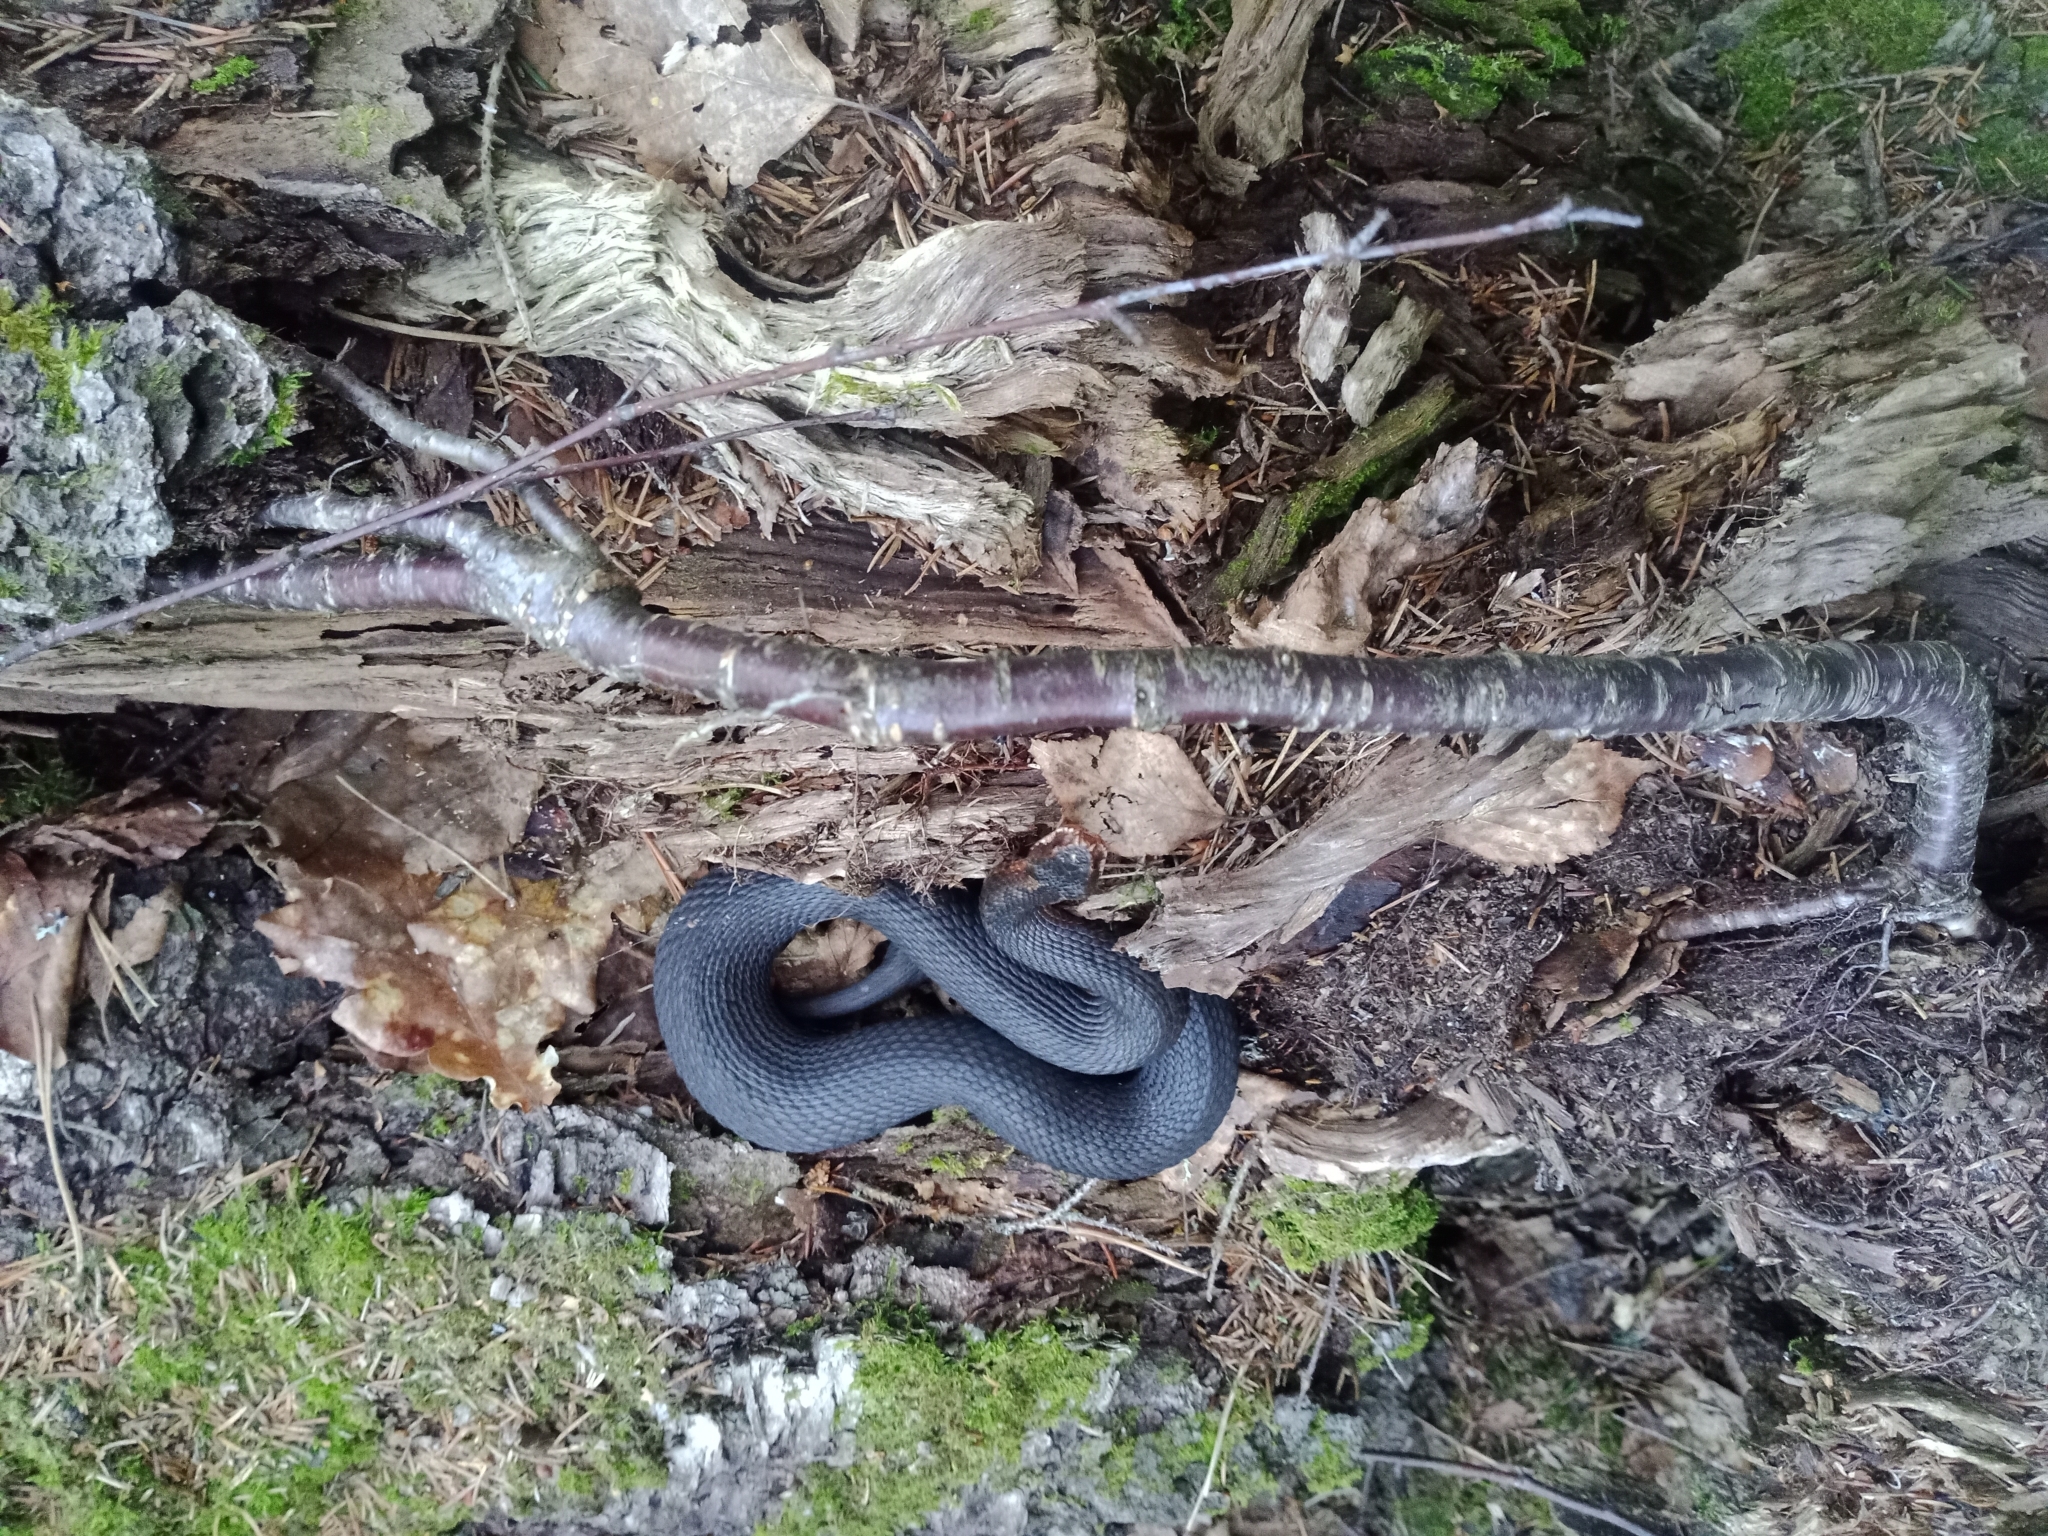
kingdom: Animalia
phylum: Chordata
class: Squamata
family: Viperidae
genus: Vipera
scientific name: Vipera berus
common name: Adder
